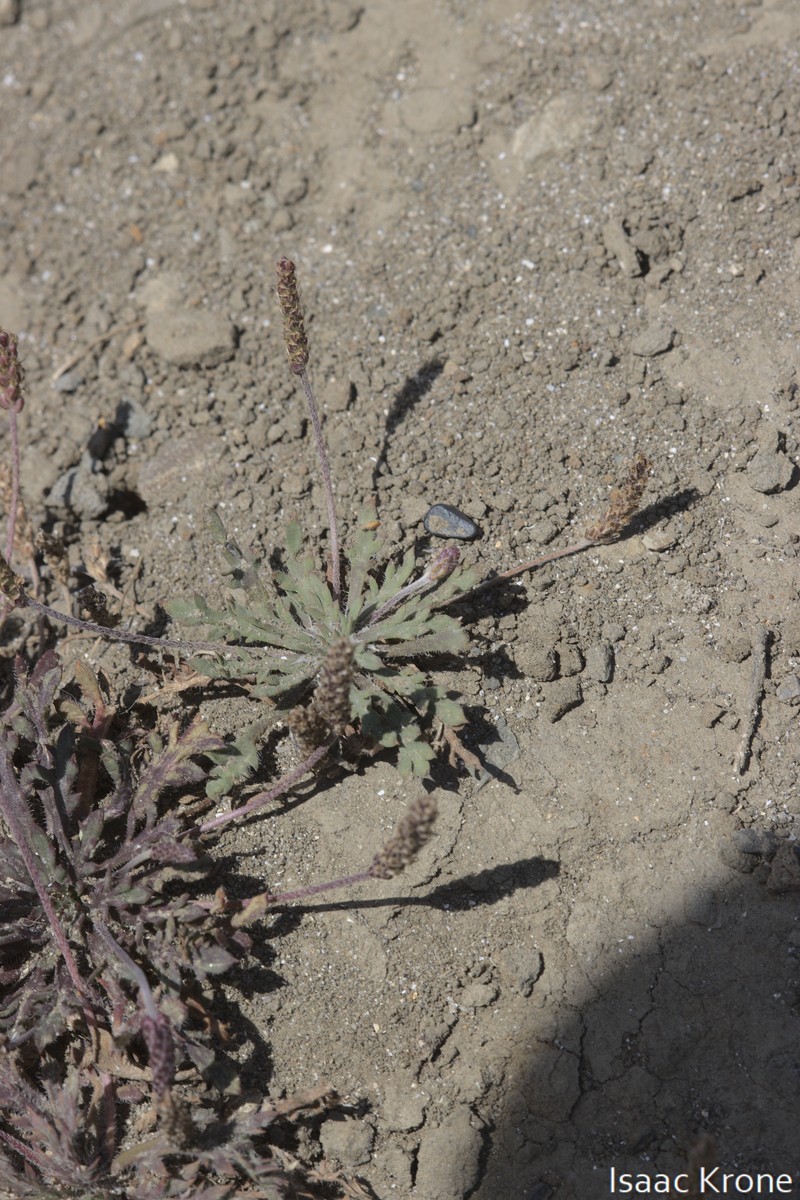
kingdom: Plantae
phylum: Tracheophyta
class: Magnoliopsida
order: Lamiales
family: Plantaginaceae
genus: Plantago
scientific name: Plantago coronopus
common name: Buck's-horn plantain
